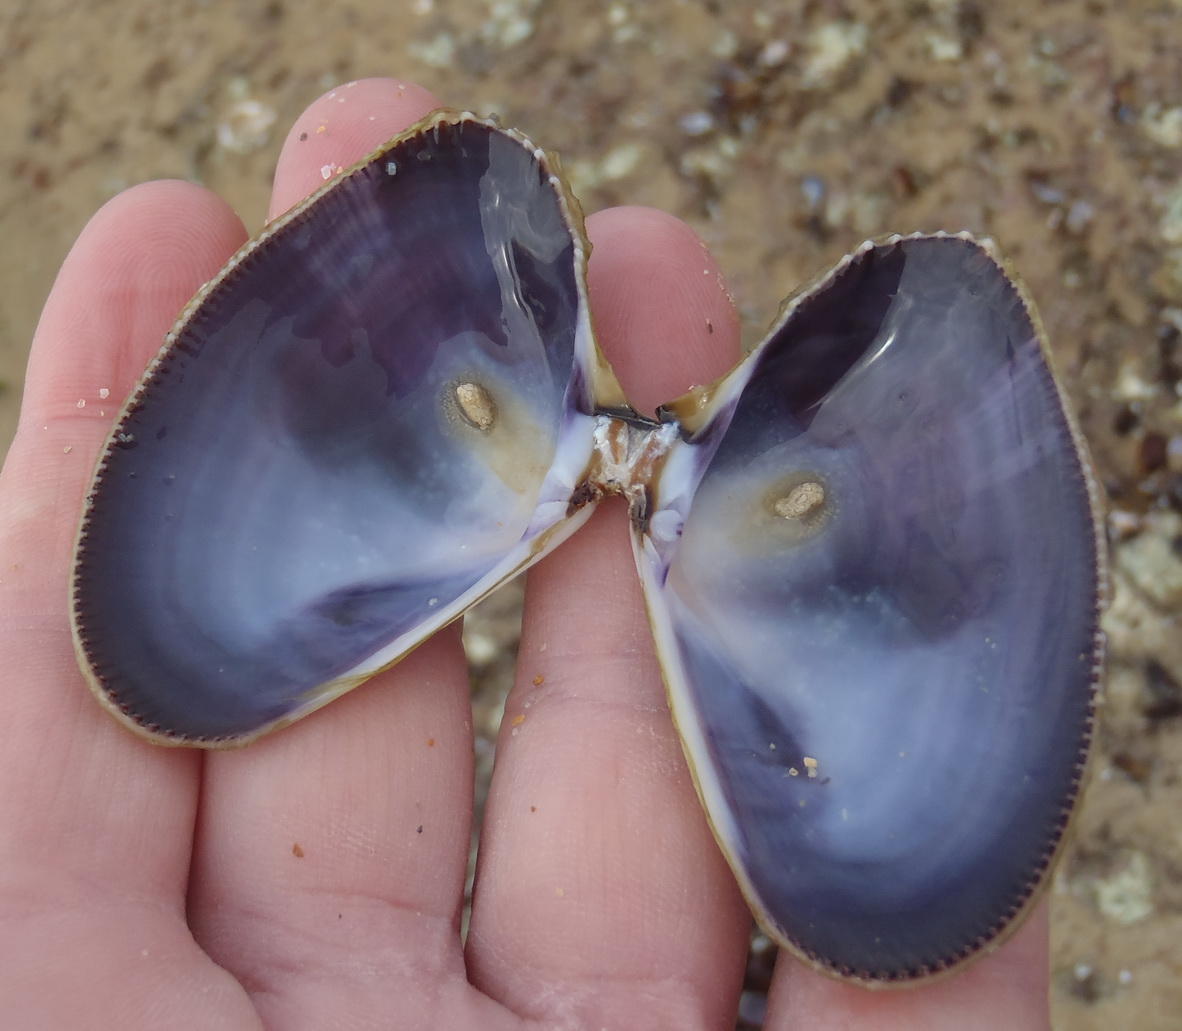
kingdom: Animalia
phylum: Mollusca
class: Bivalvia
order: Cardiida
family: Donacidae
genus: Donax
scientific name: Donax serra
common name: Giant south african wedge clam
